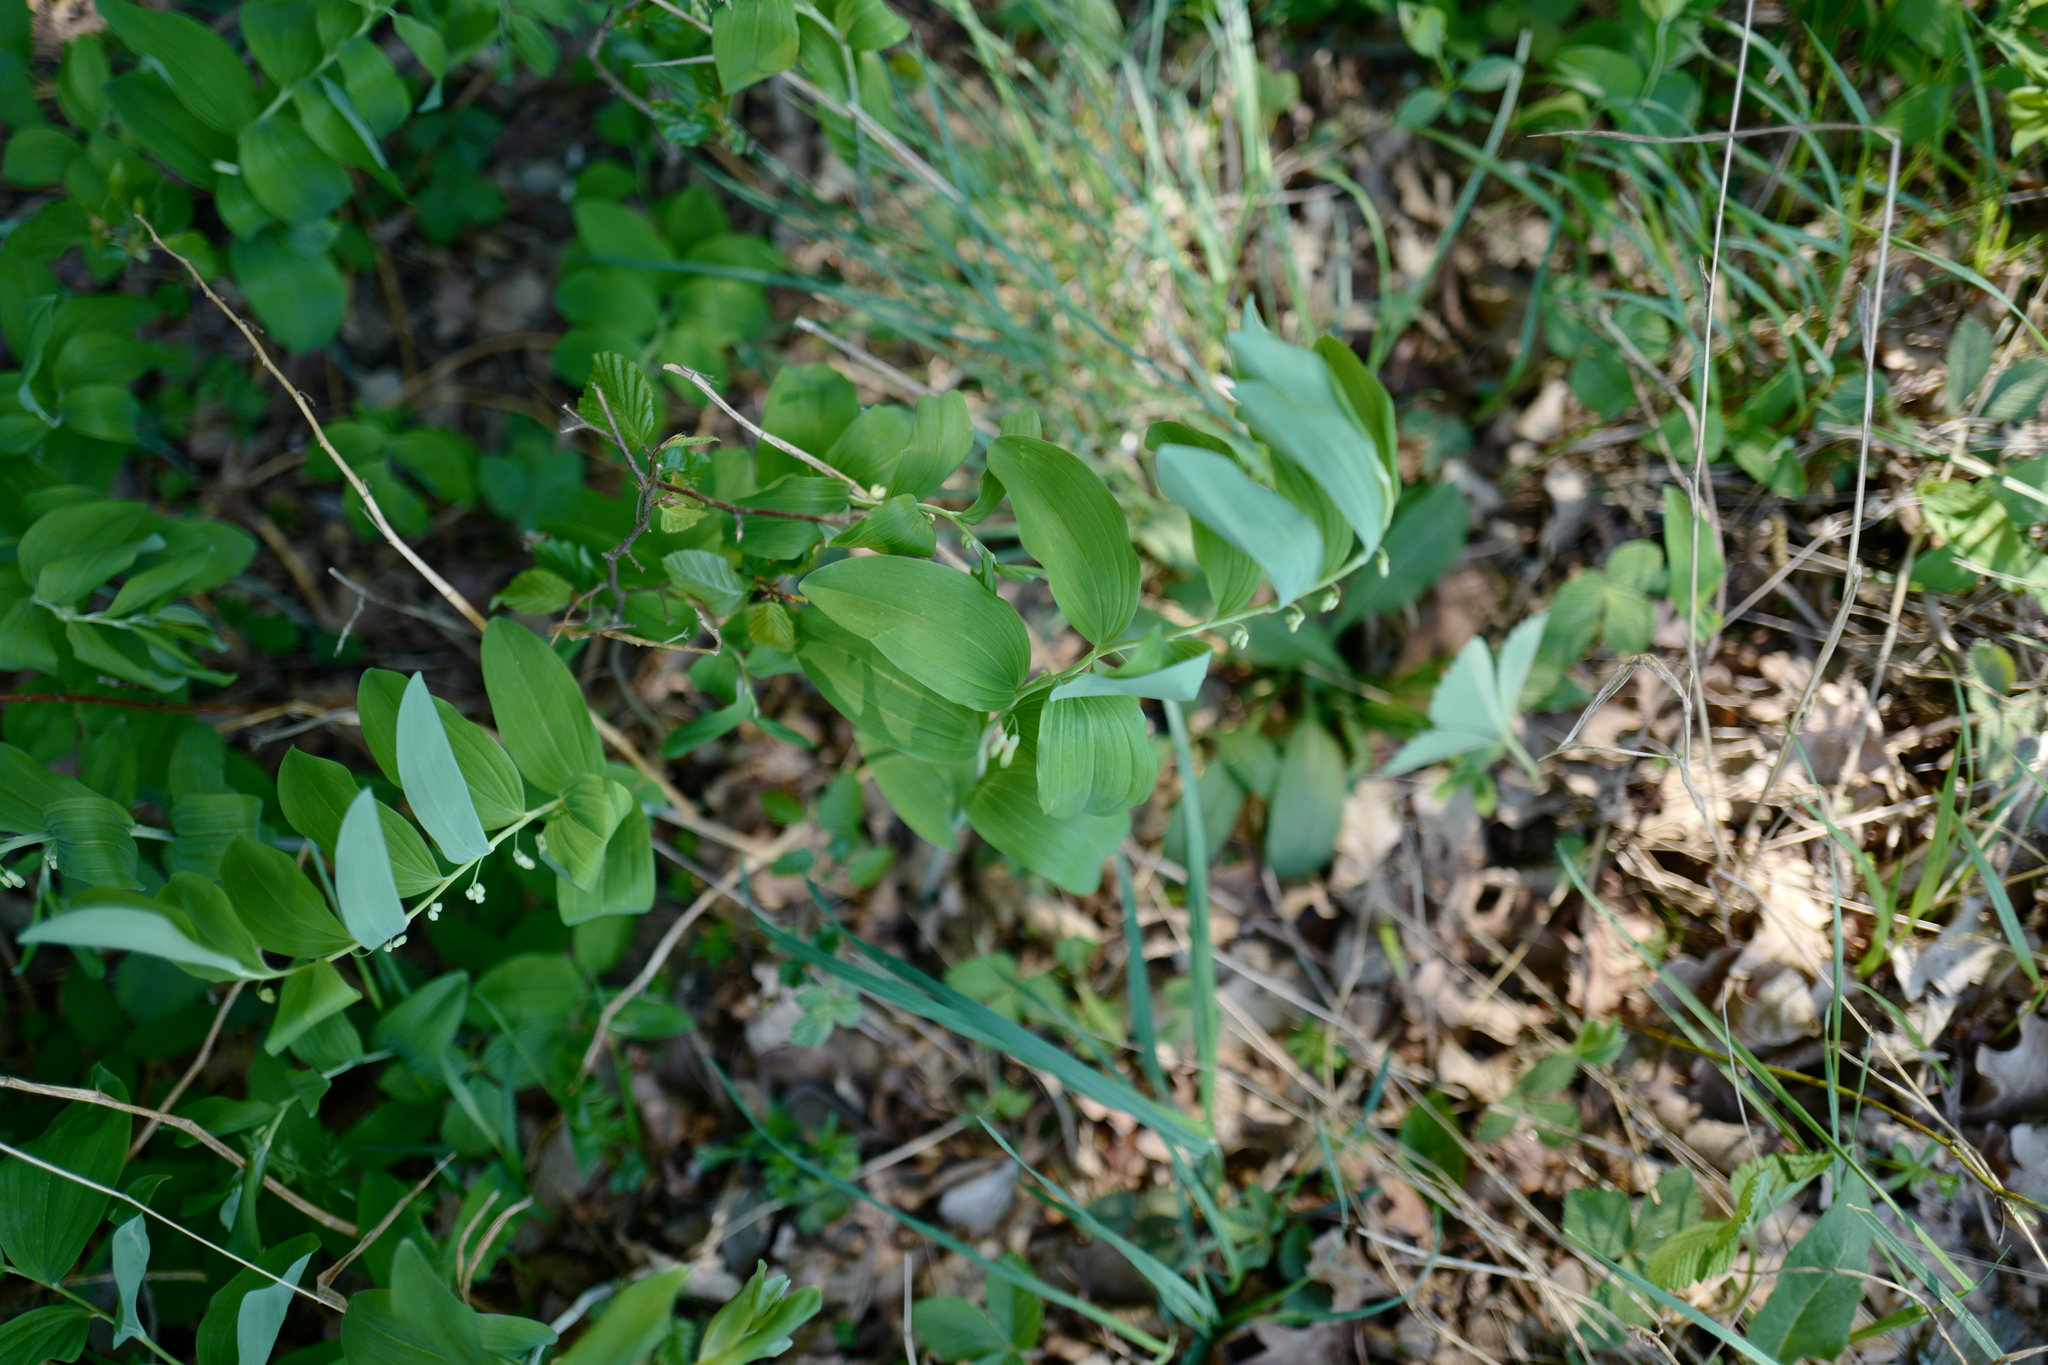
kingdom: Plantae
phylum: Tracheophyta
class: Liliopsida
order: Asparagales
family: Asparagaceae
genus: Polygonatum
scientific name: Polygonatum multiflorum
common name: Solomon's-seal
